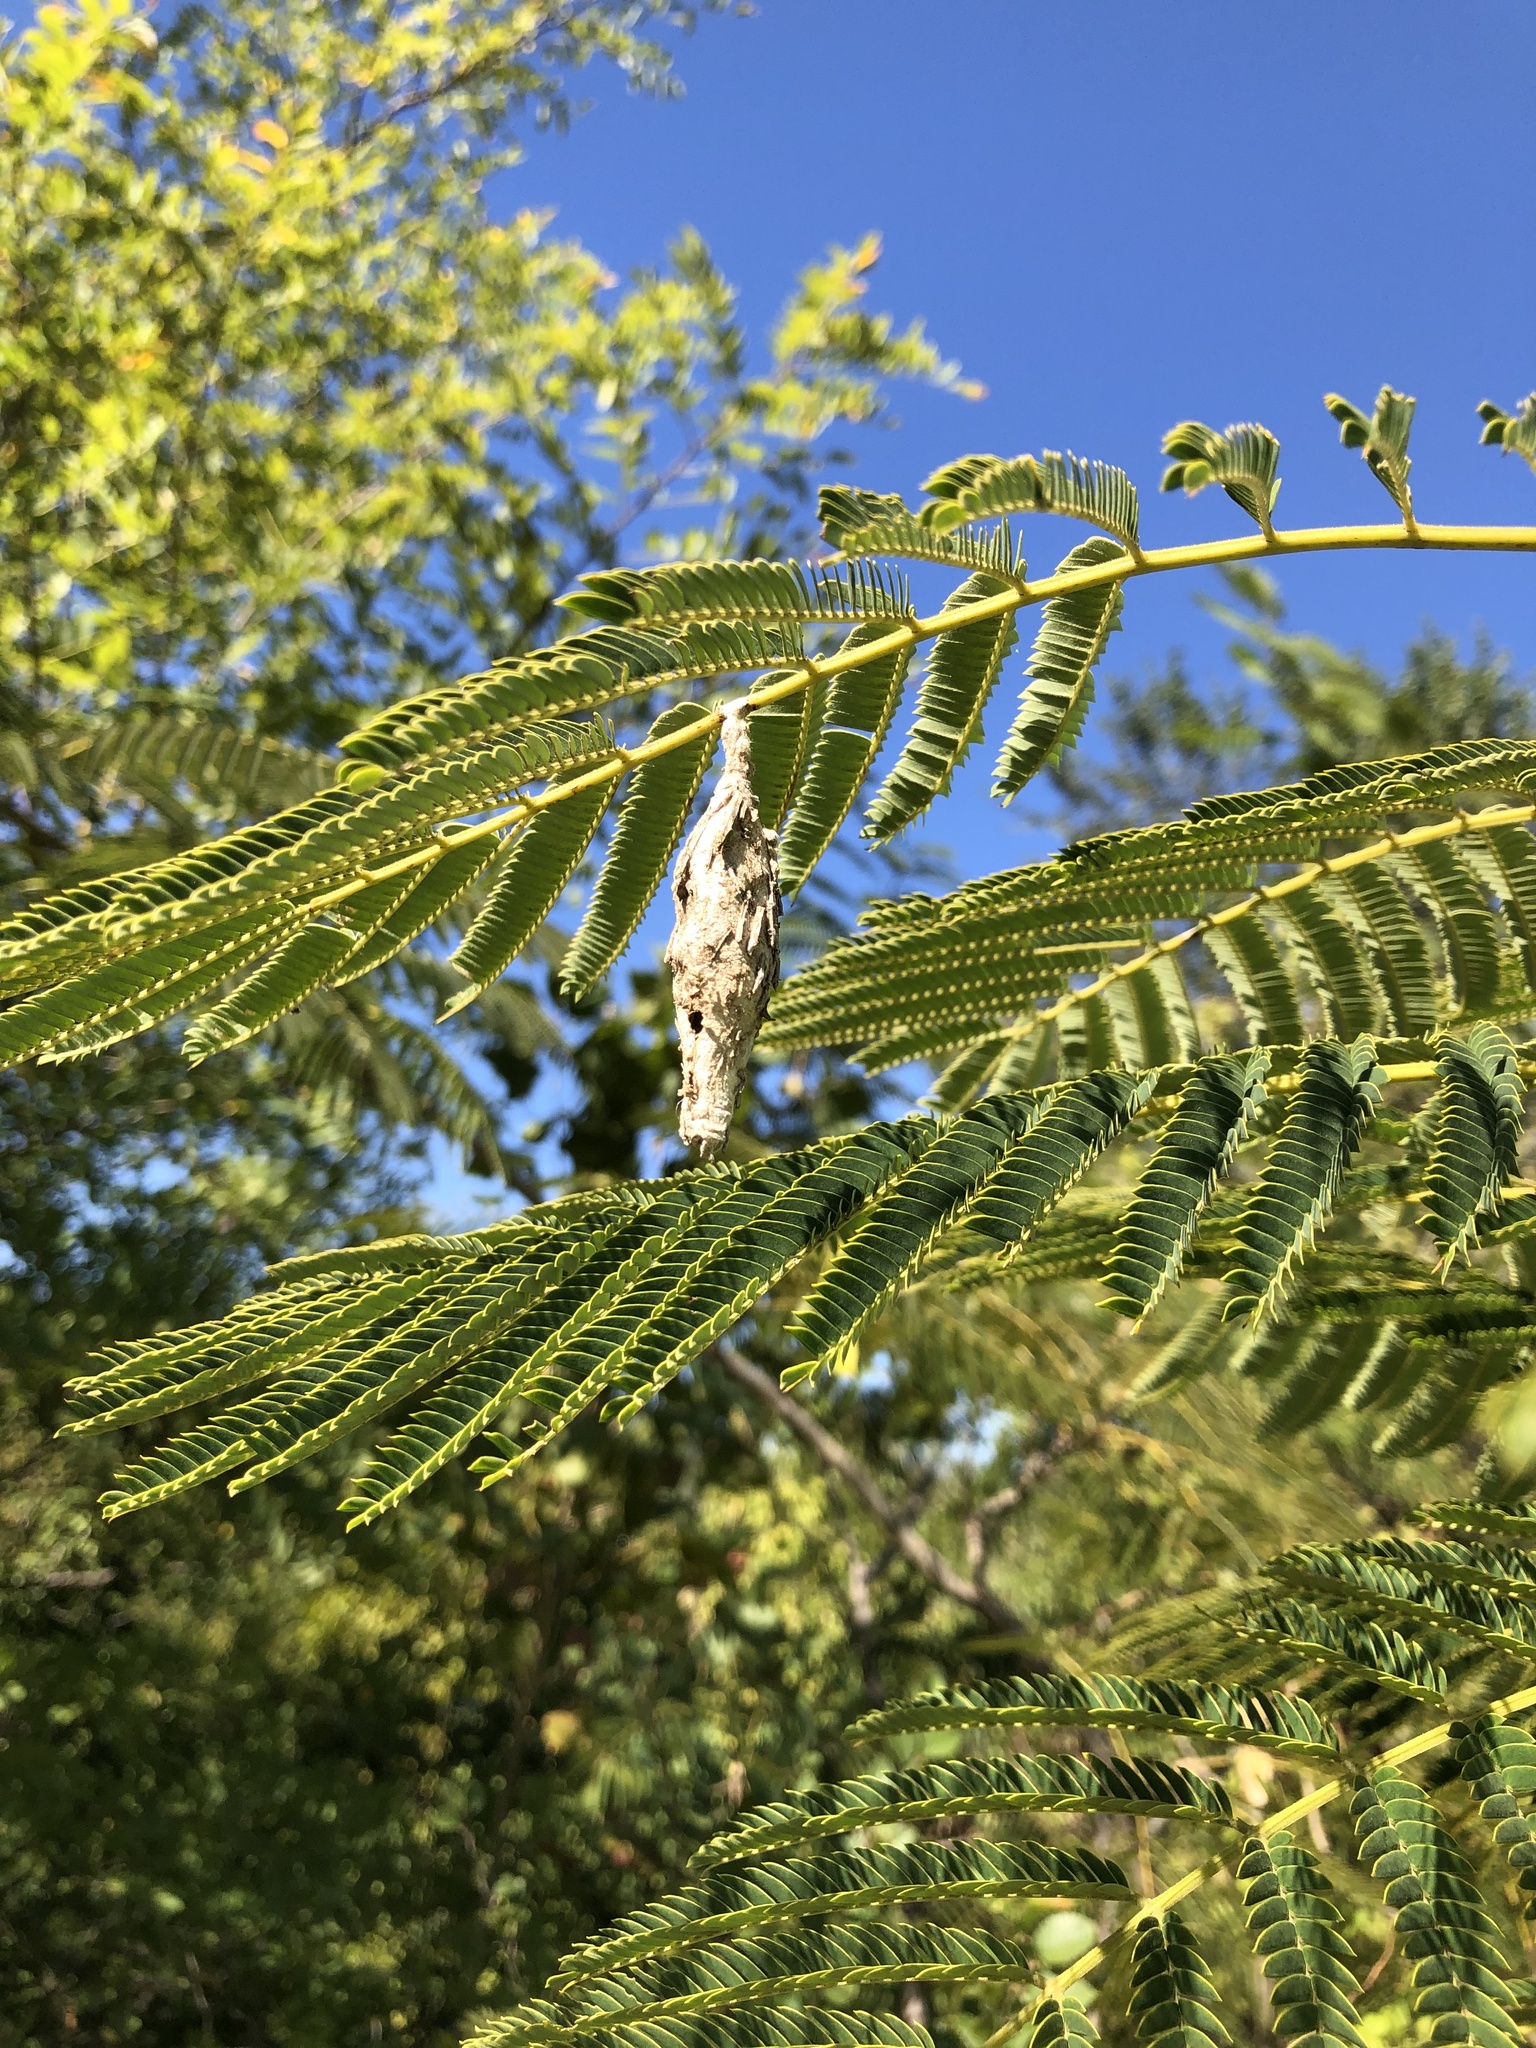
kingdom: Animalia
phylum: Arthropoda
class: Insecta
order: Lepidoptera
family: Psychidae
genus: Thyridopteryx
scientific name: Thyridopteryx ephemeraeformis
